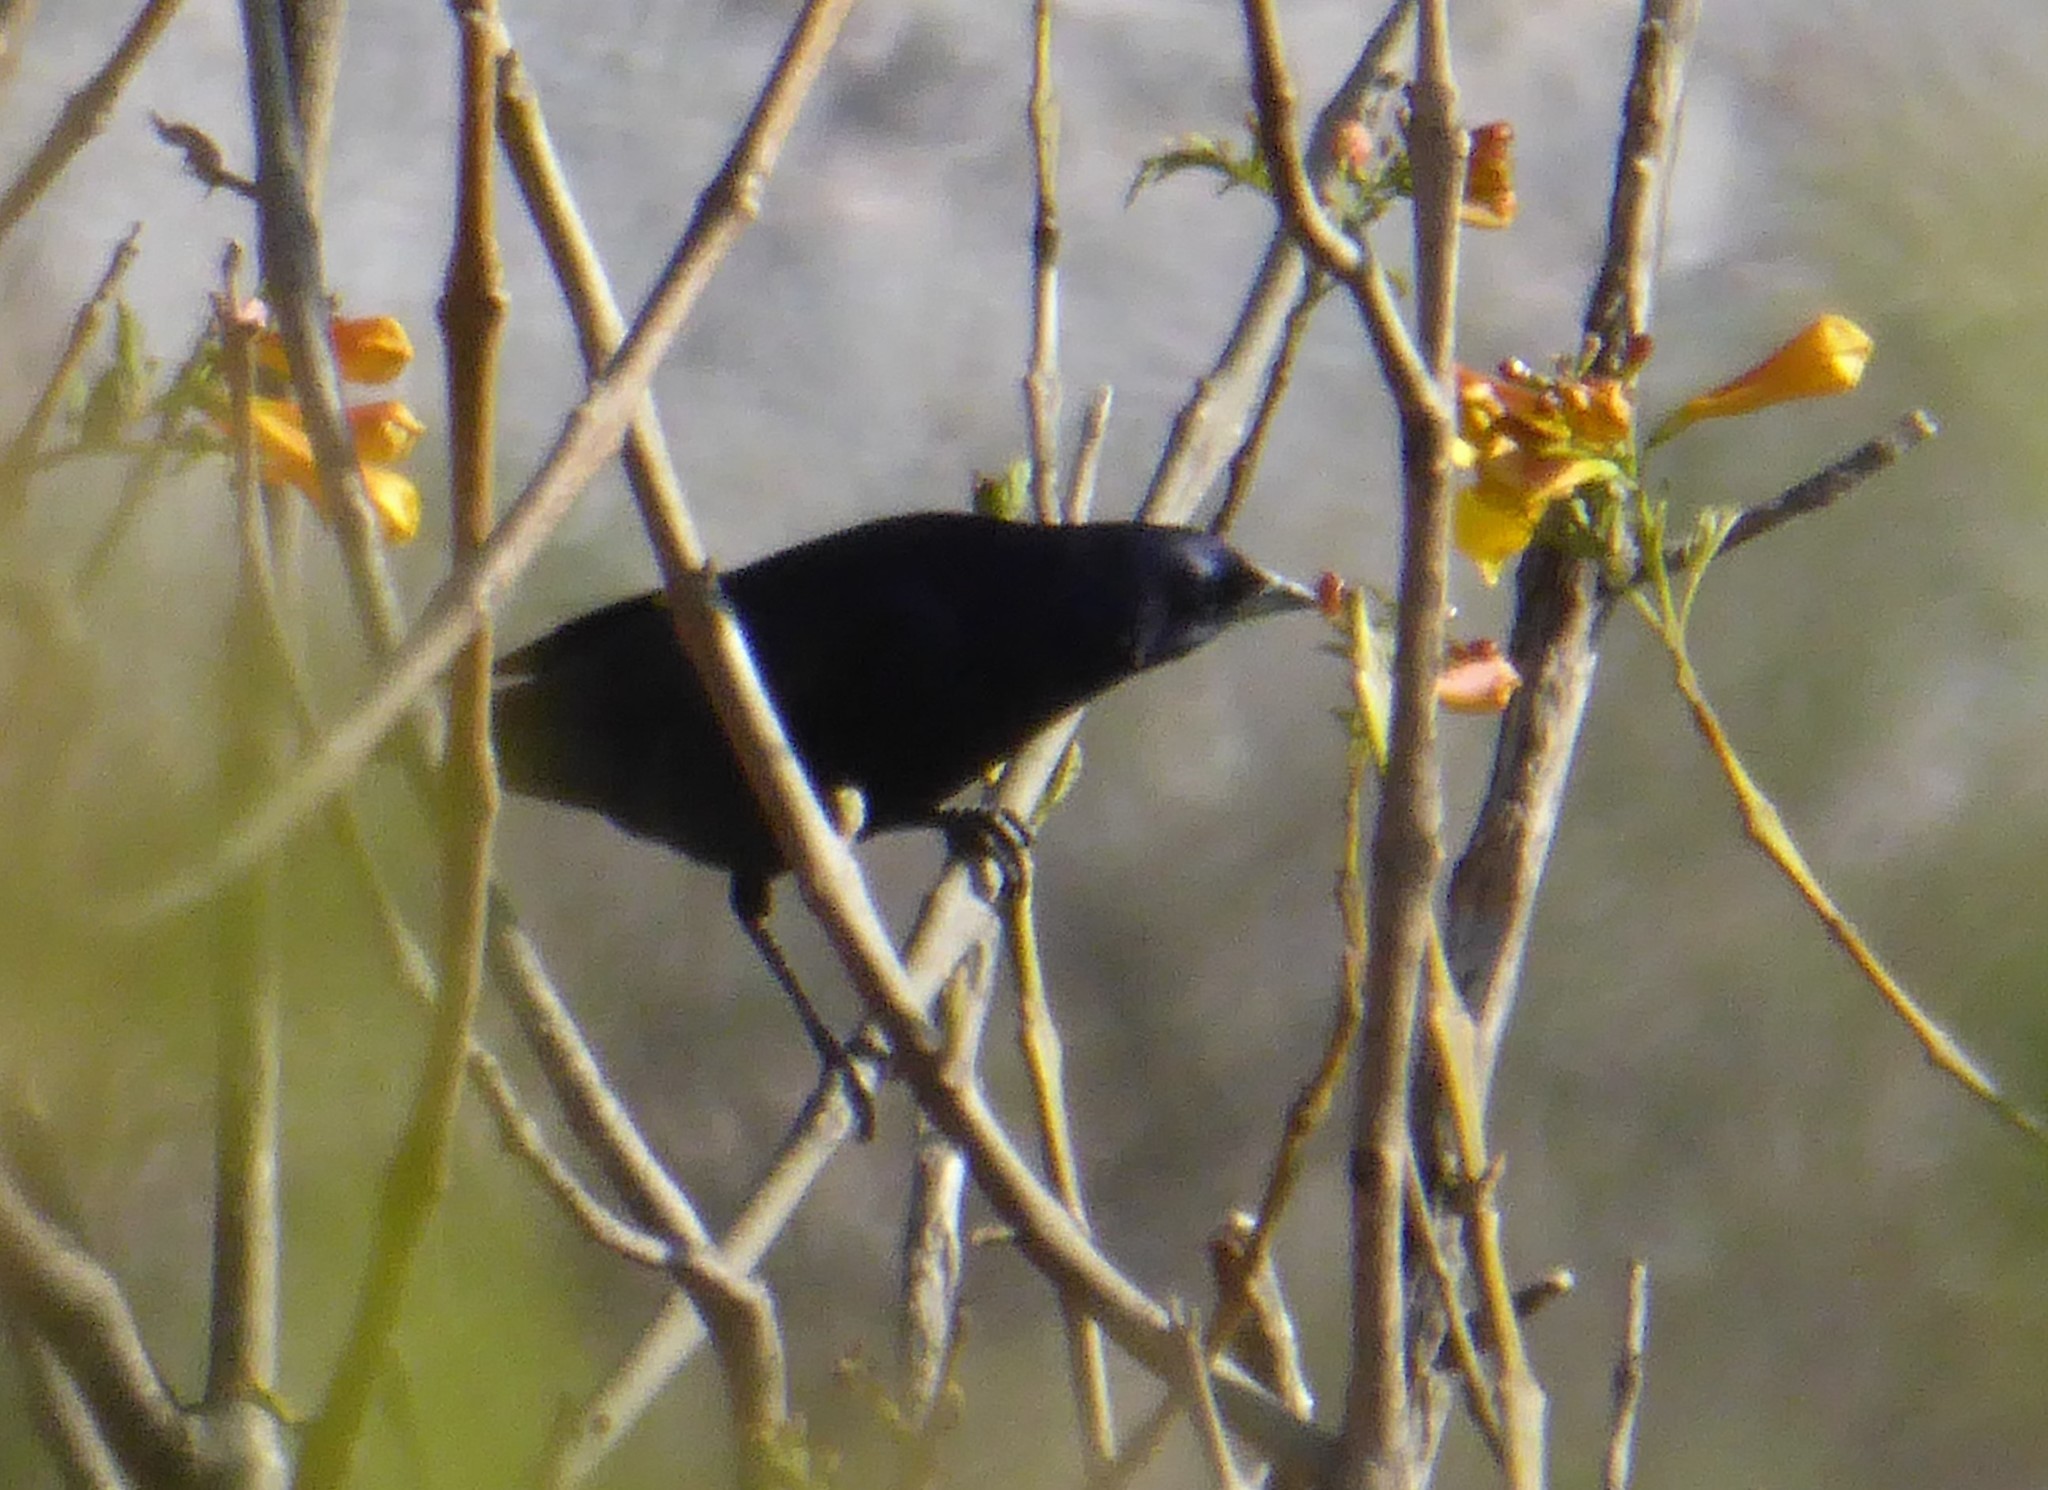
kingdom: Animalia
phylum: Chordata
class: Aves
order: Passeriformes
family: Icteridae
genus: Molothrus
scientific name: Molothrus bonariensis
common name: Shiny cowbird
